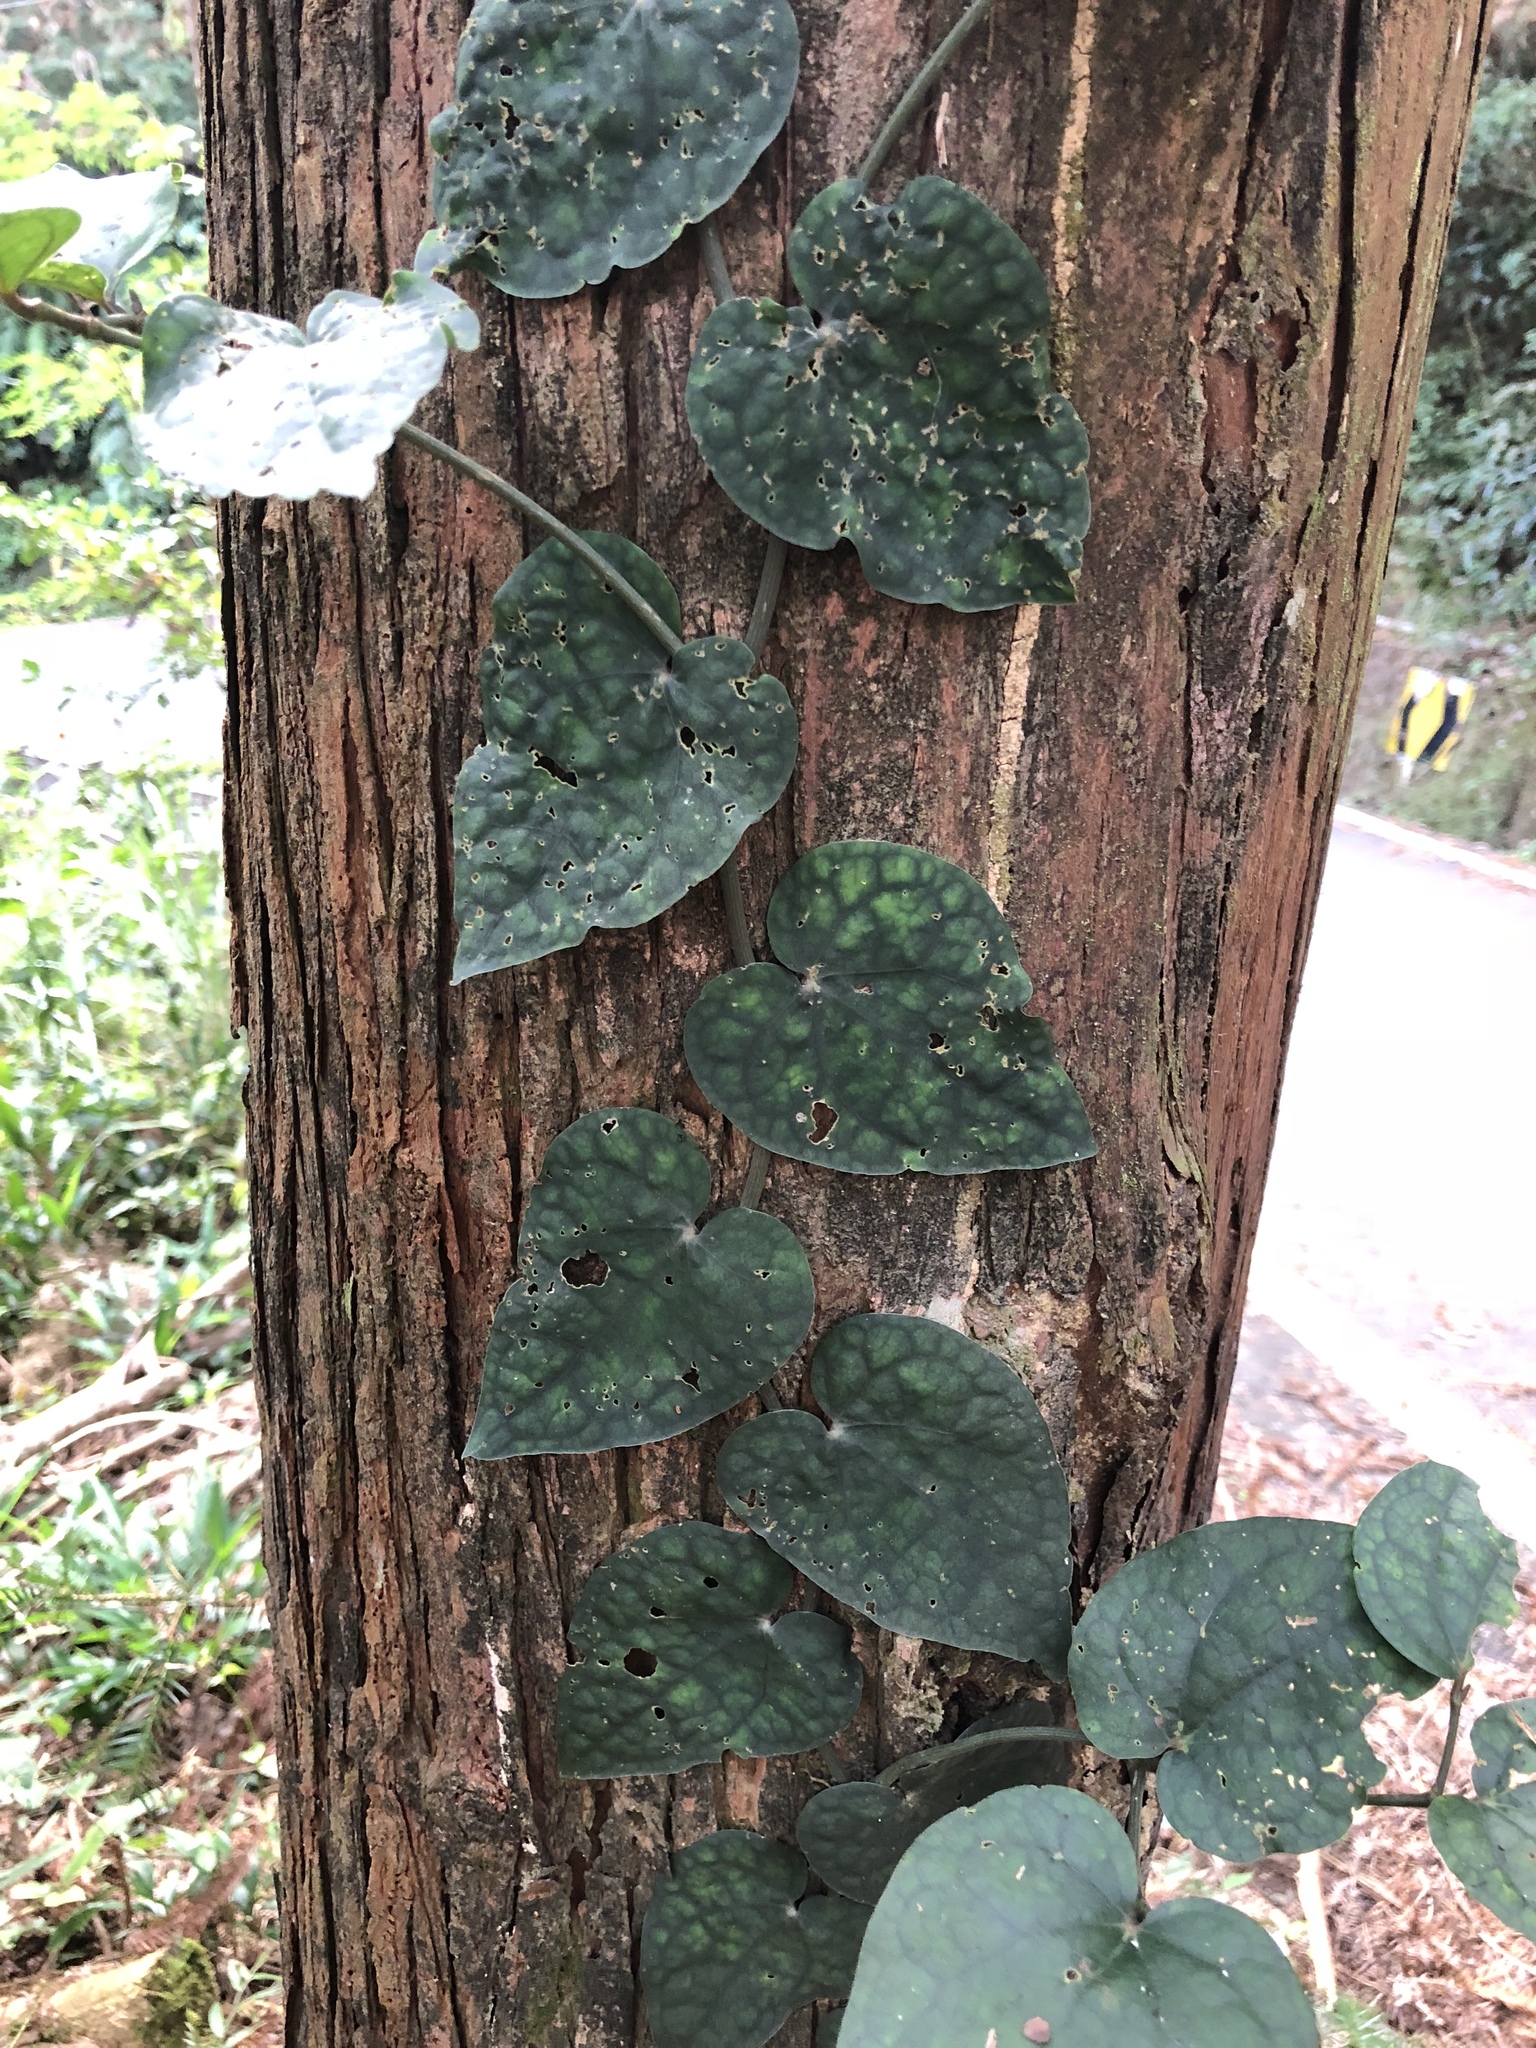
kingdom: Plantae
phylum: Tracheophyta
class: Magnoliopsida
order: Piperales
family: Piperaceae
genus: Piper
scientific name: Piper taiwanense
